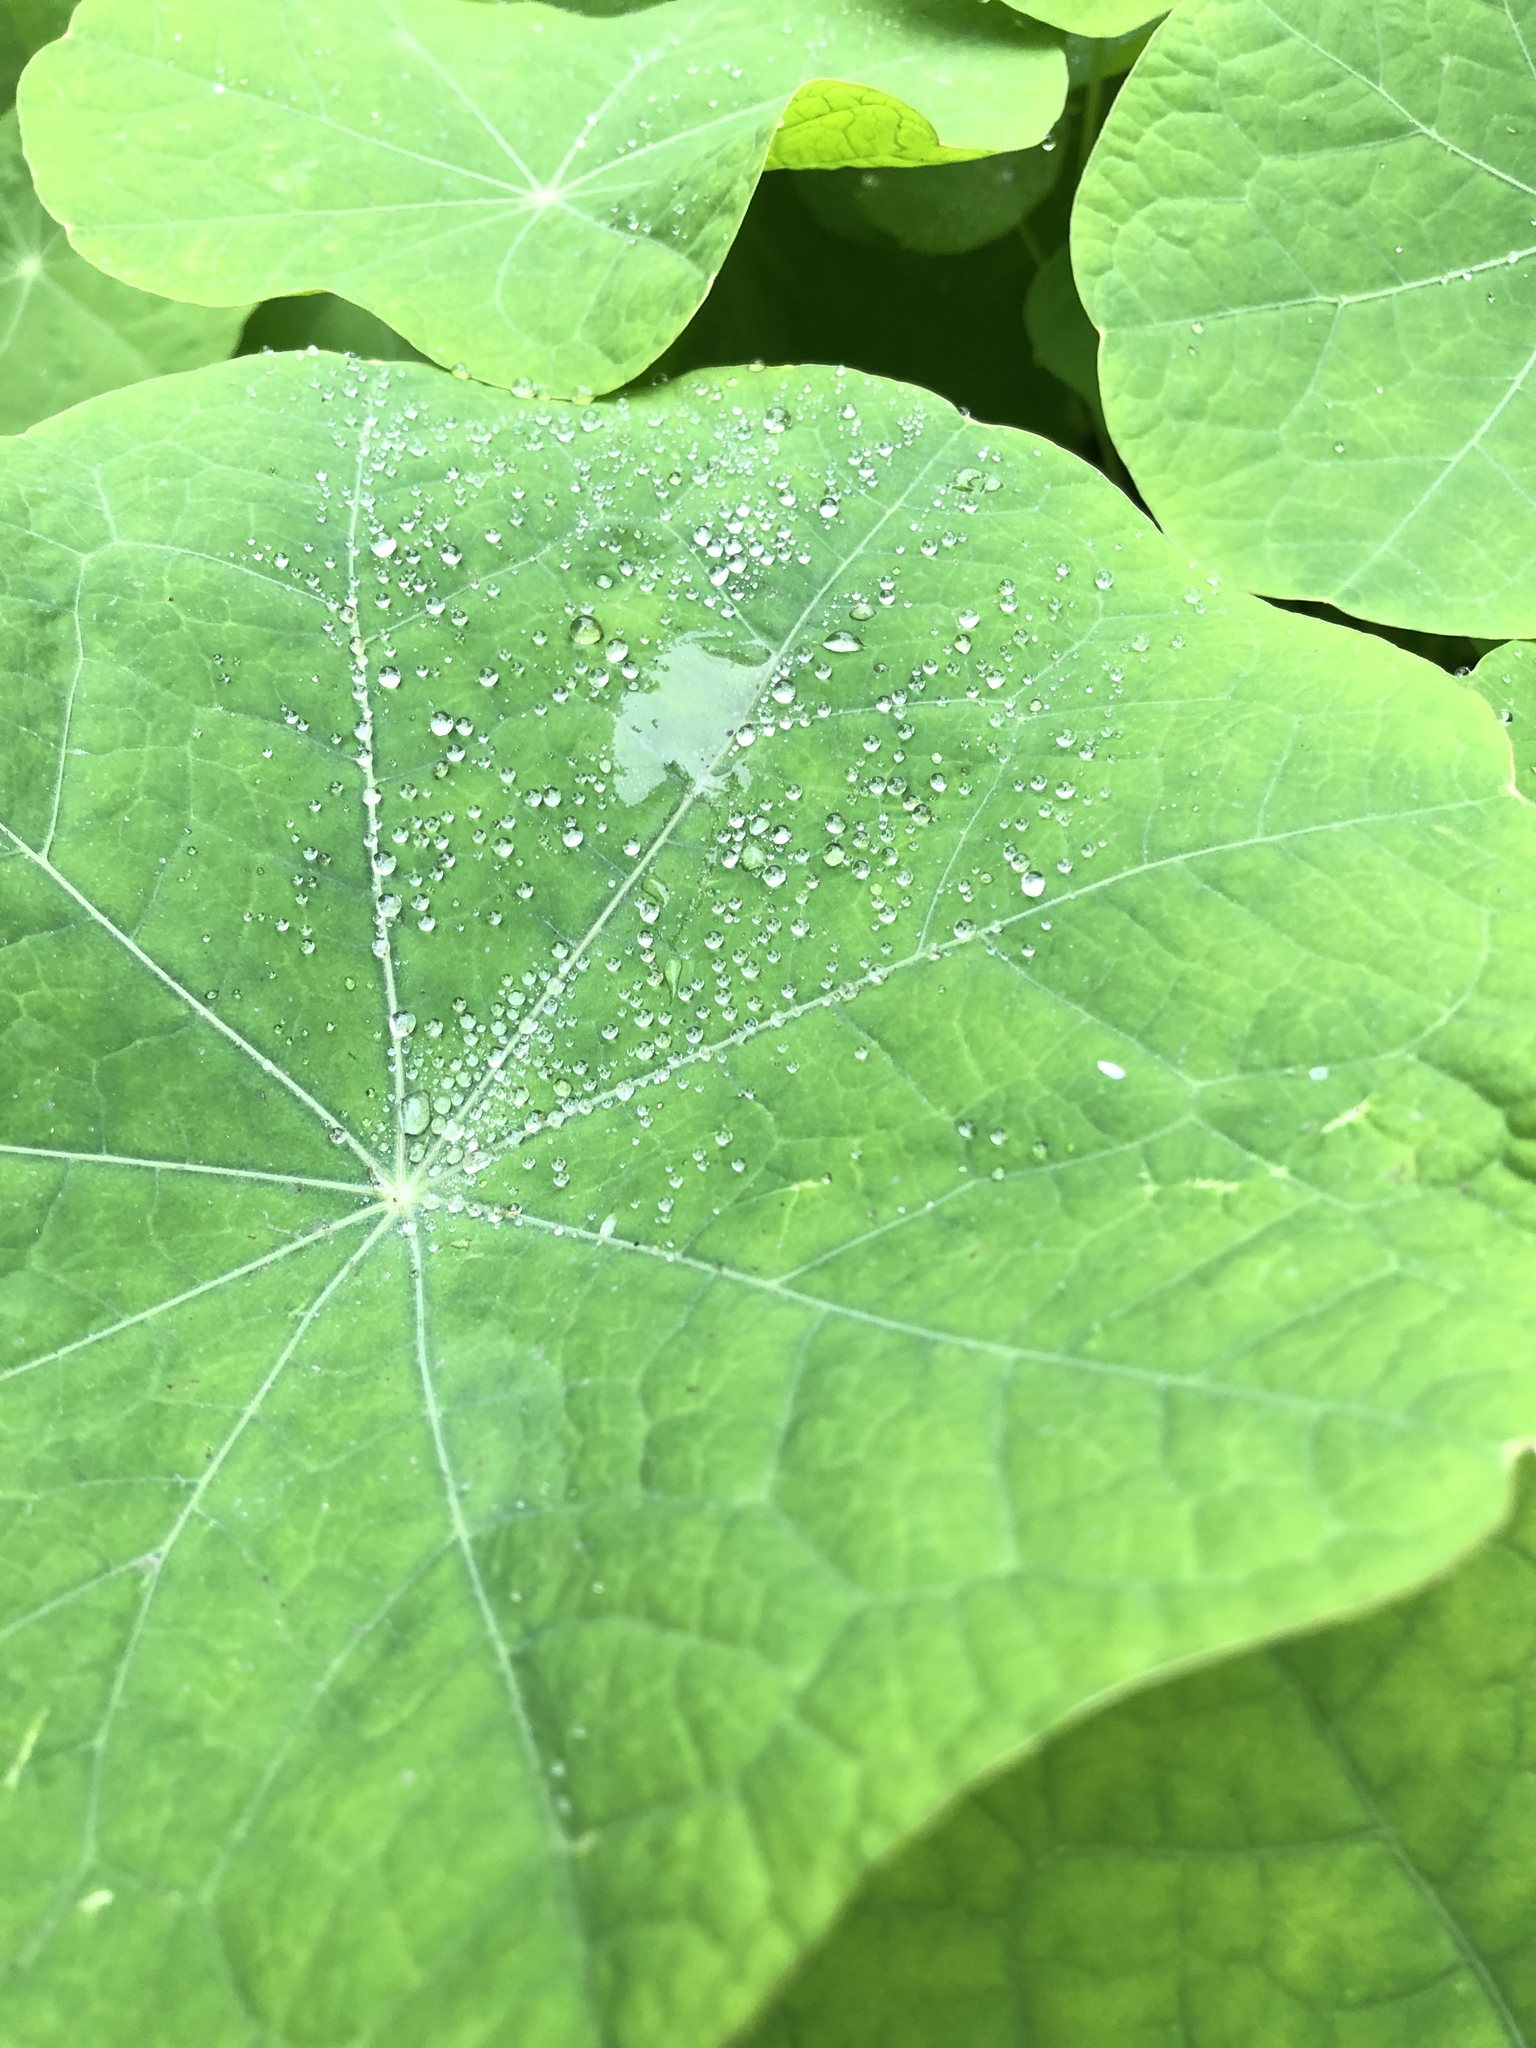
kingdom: Plantae
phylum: Tracheophyta
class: Magnoliopsida
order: Brassicales
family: Tropaeolaceae
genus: Tropaeolum
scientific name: Tropaeolum majus
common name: Nasturtium
